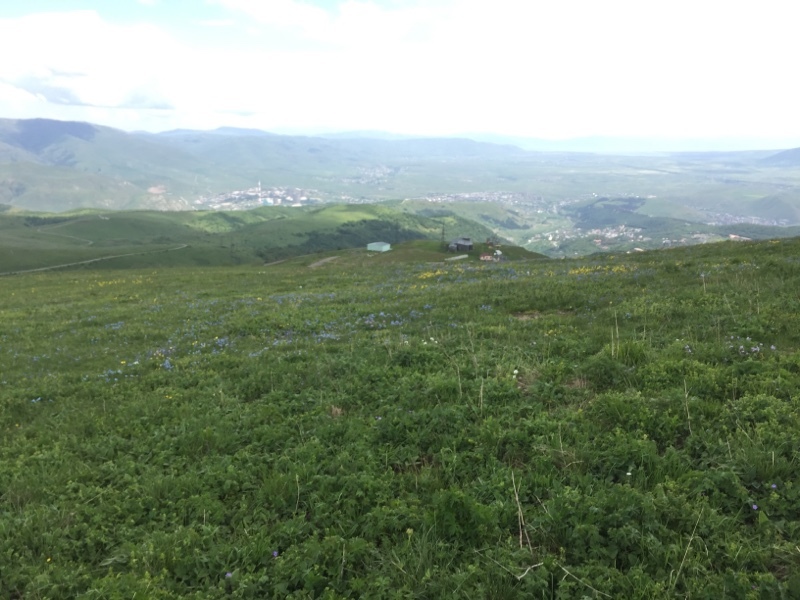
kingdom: Plantae
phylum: Tracheophyta
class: Magnoliopsida
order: Brassicales
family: Brassicaceae
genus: Hesperis
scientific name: Hesperis matronalis
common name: Dame's-violet
